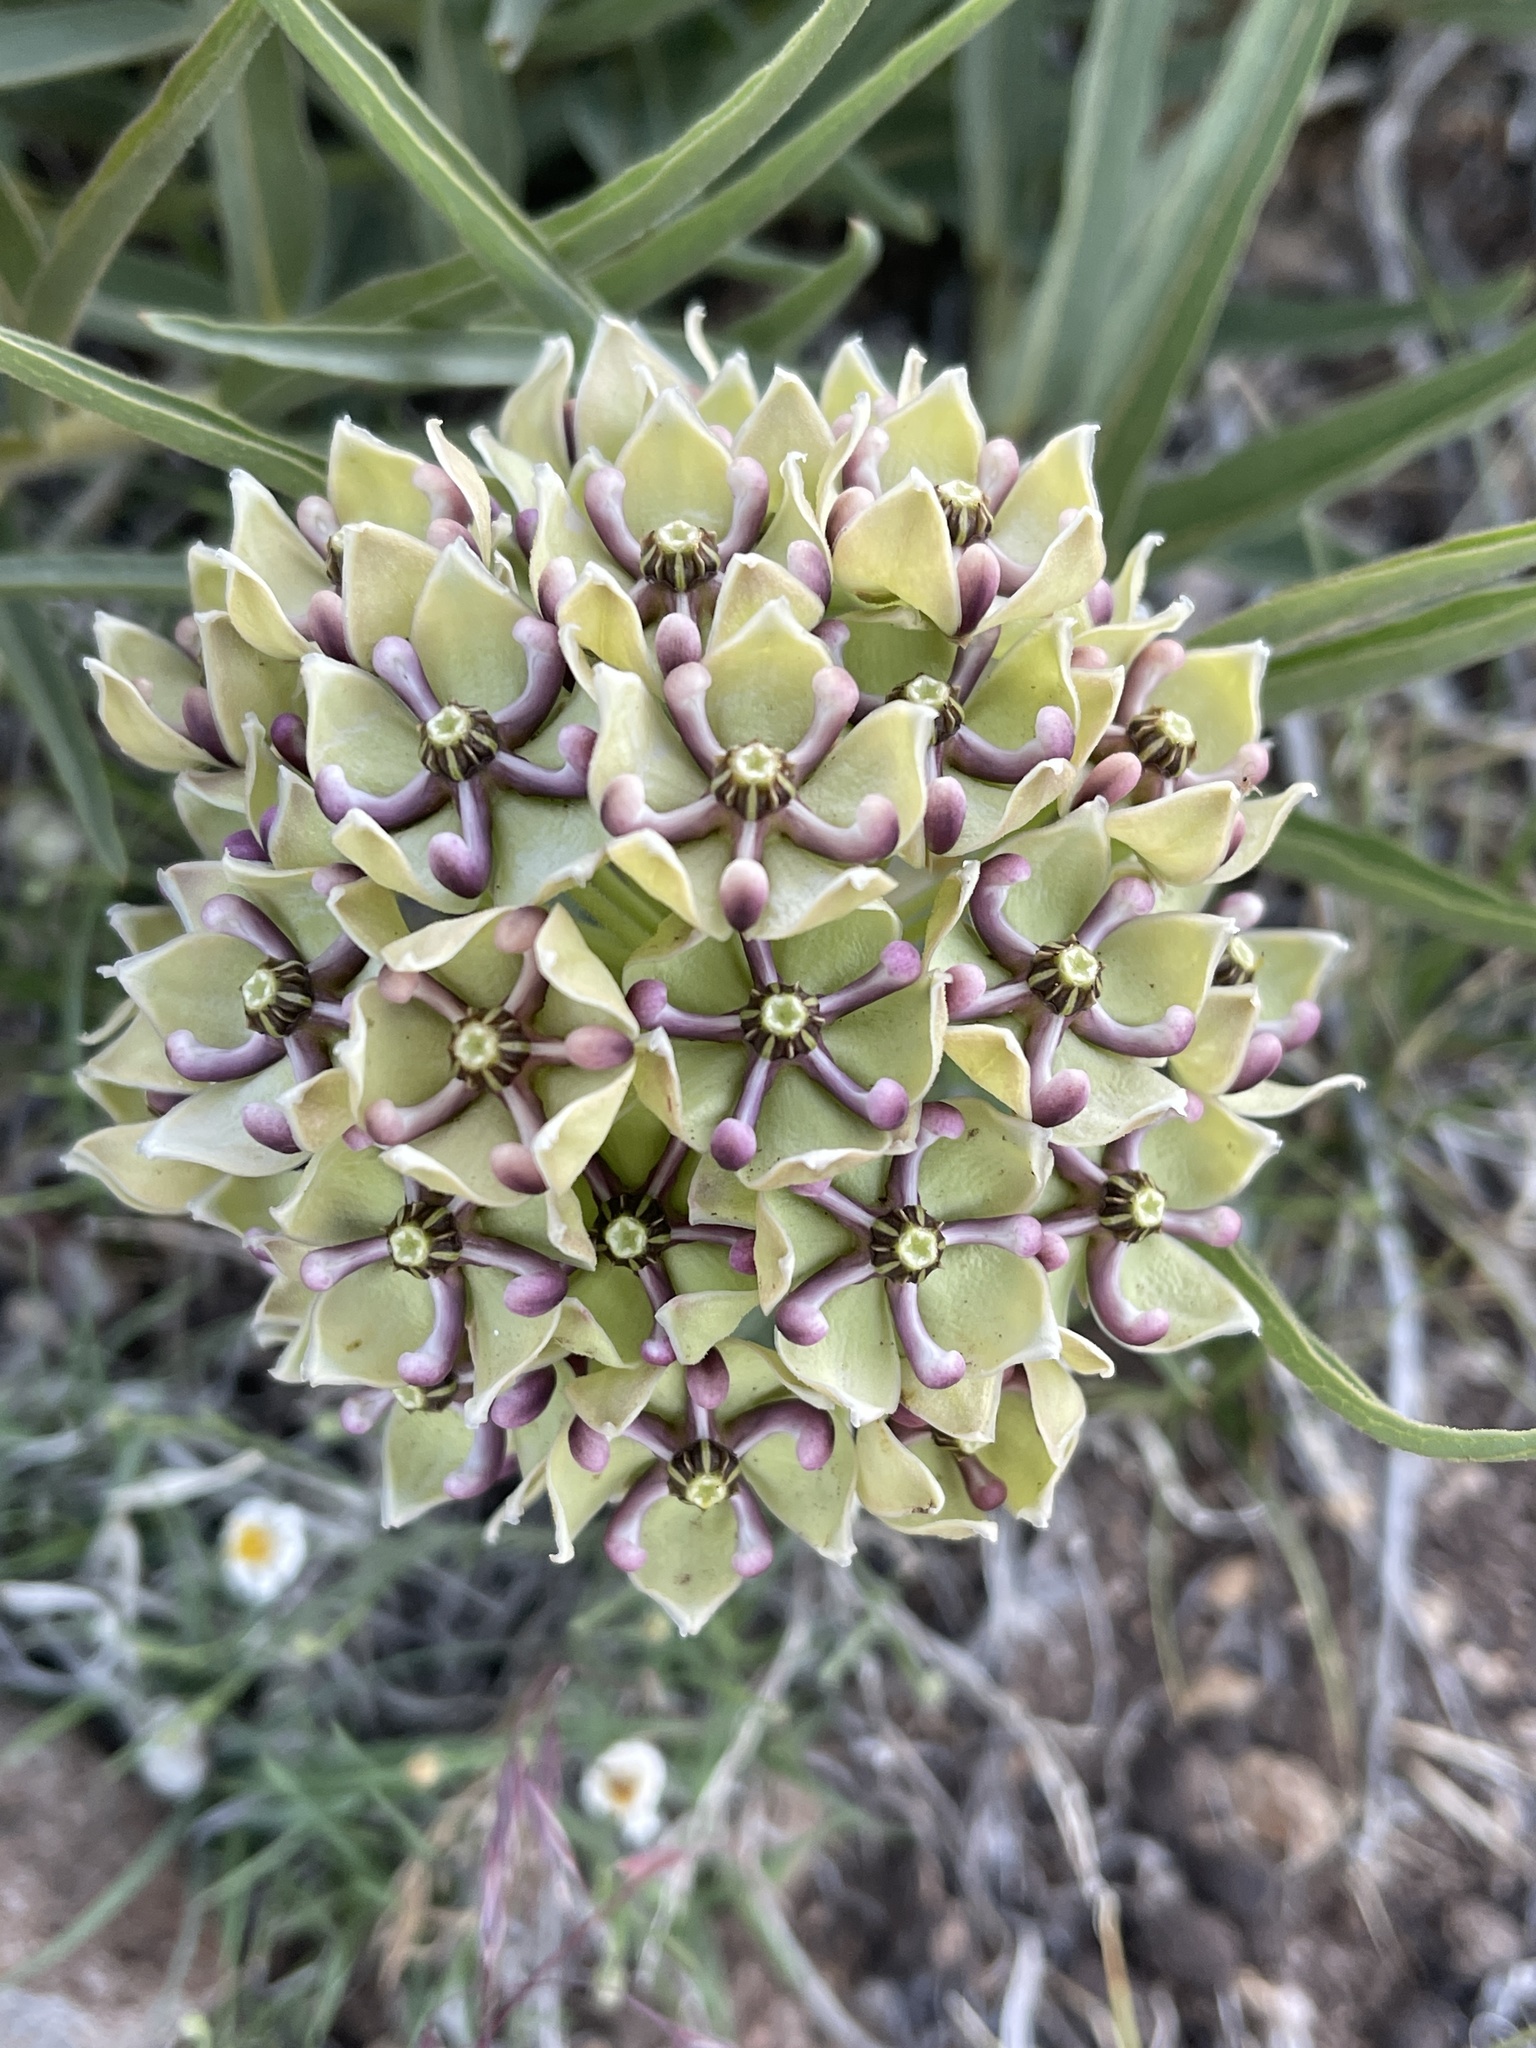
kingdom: Plantae
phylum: Tracheophyta
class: Magnoliopsida
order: Gentianales
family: Apocynaceae
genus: Asclepias
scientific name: Asclepias asperula
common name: Antelope horns
